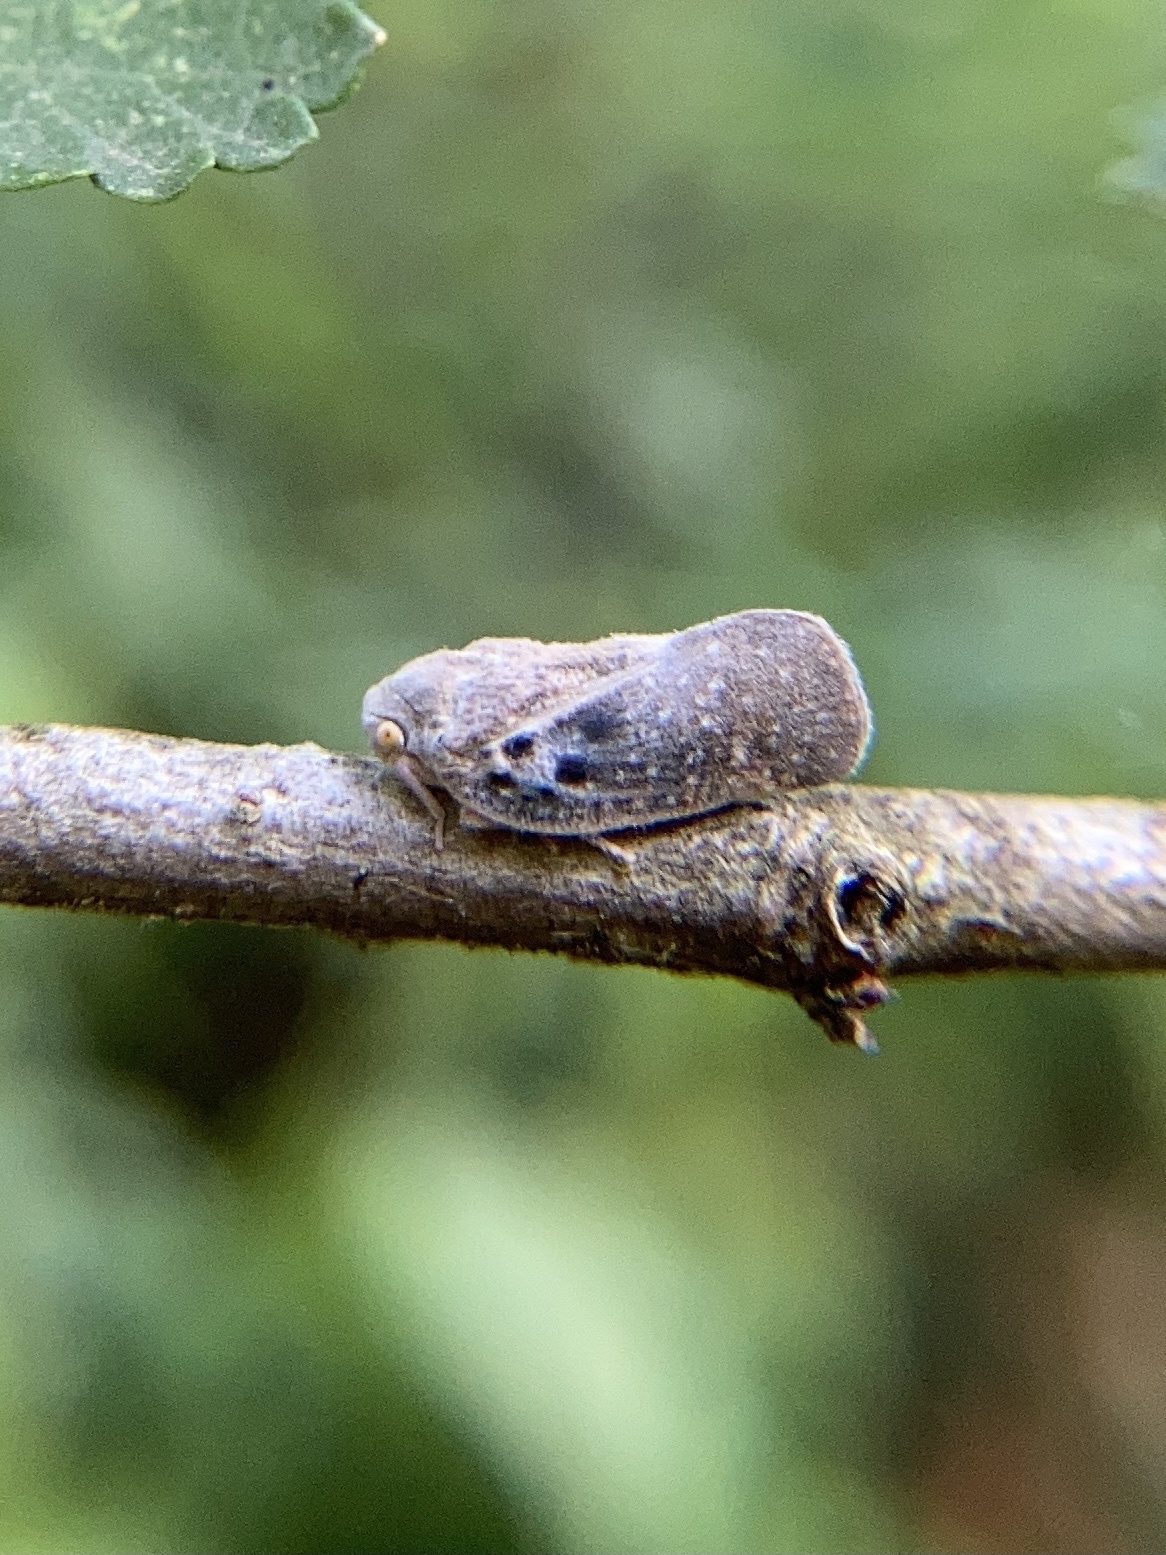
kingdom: Animalia
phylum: Arthropoda
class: Insecta
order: Hemiptera
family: Flatidae
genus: Metcalfa
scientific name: Metcalfa pruinosa
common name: Citrus flatid planthopper
